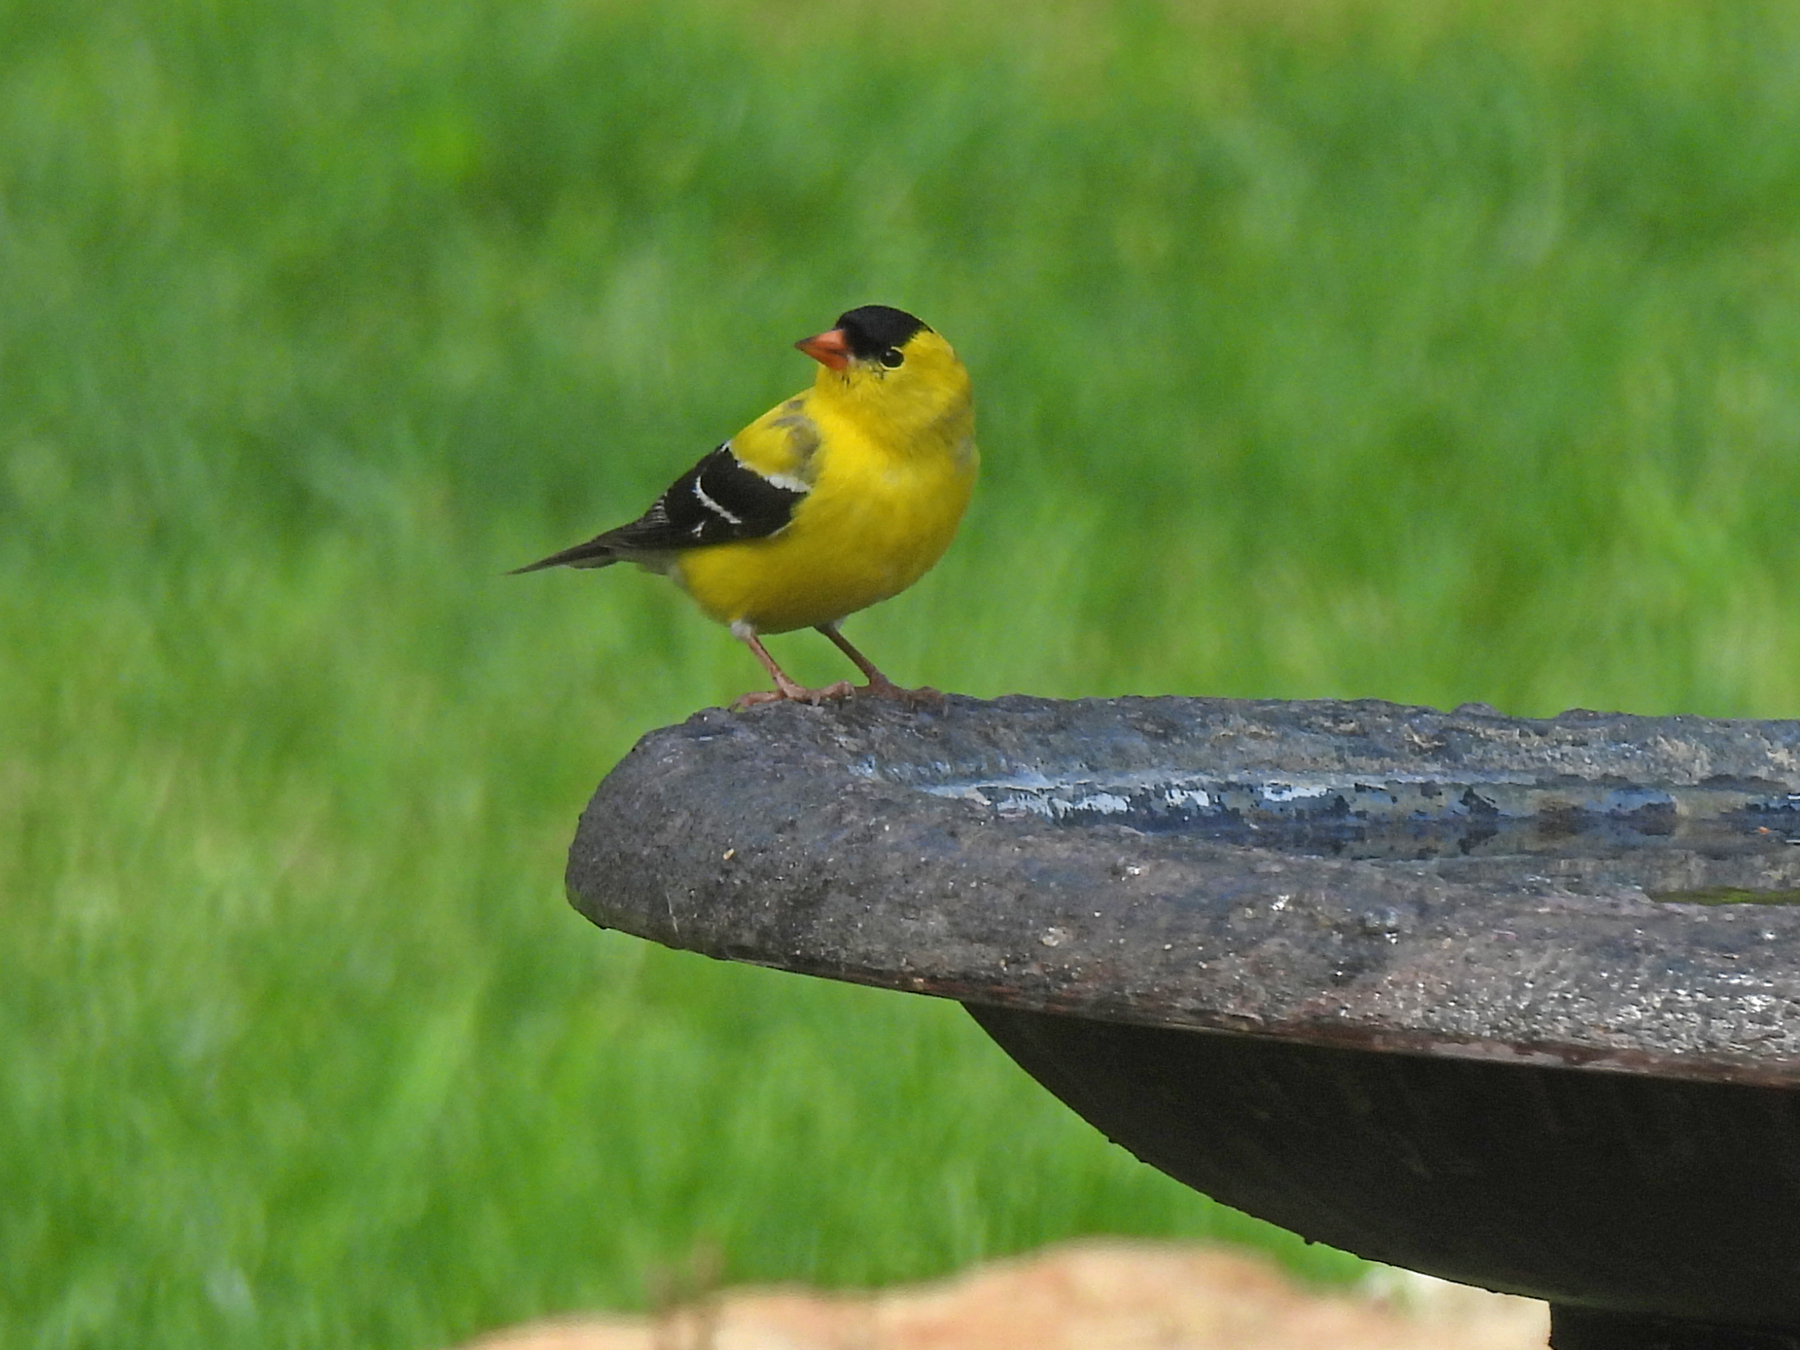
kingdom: Animalia
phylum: Chordata
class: Aves
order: Passeriformes
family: Fringillidae
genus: Spinus
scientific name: Spinus tristis
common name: American goldfinch
